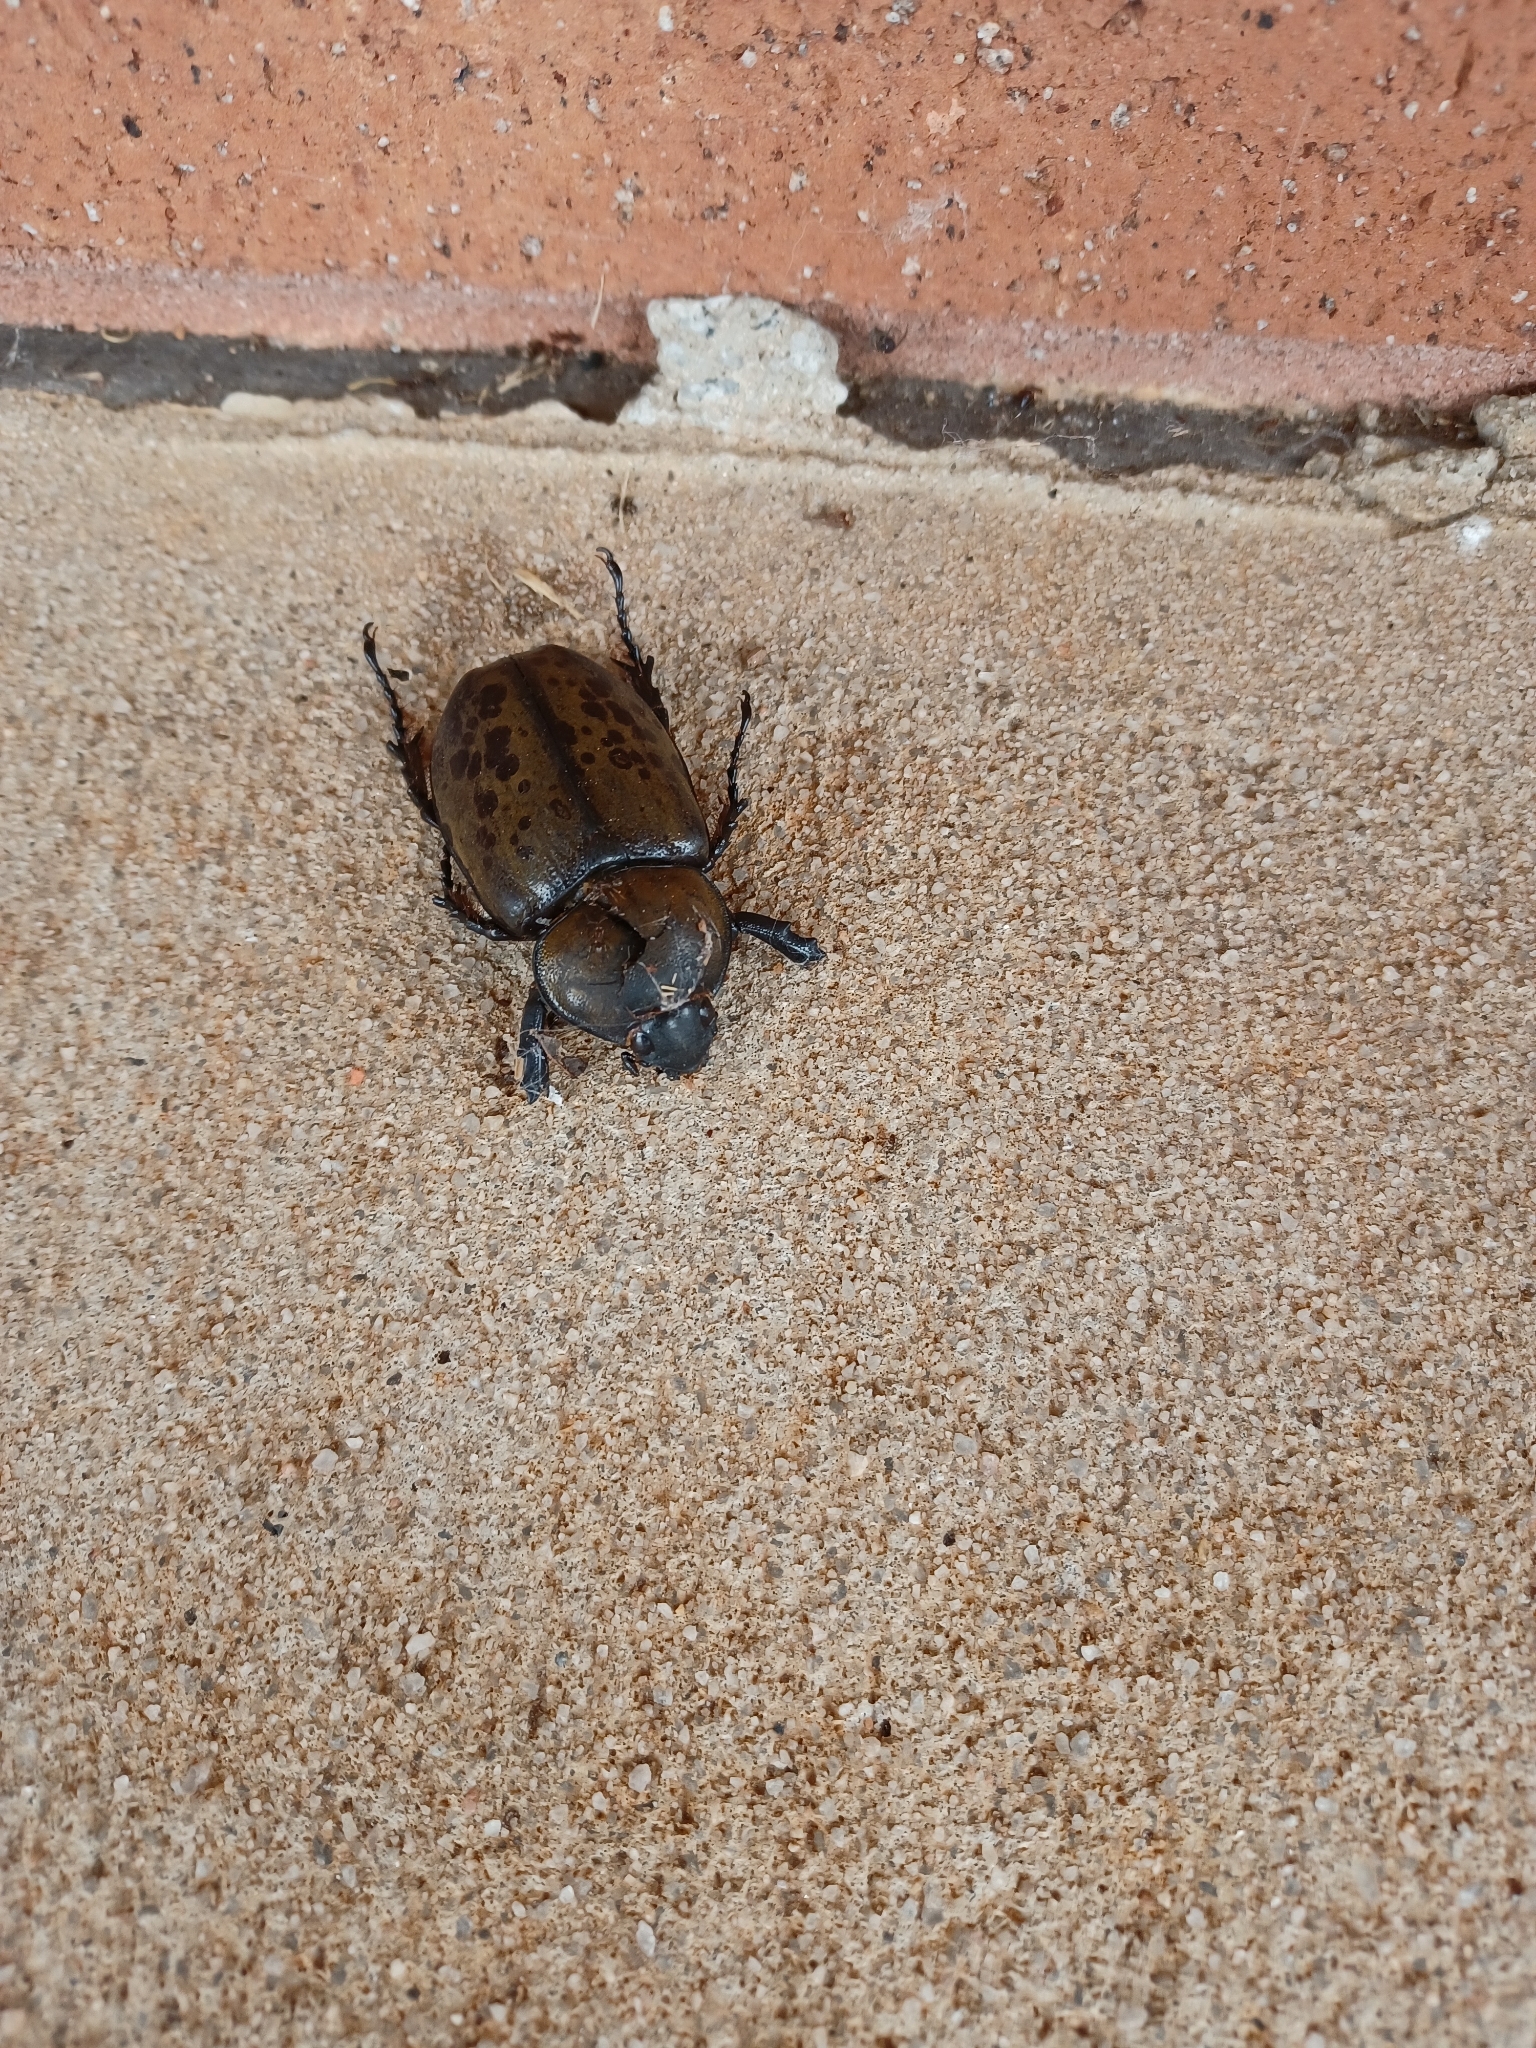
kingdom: Animalia
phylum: Arthropoda
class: Insecta
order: Coleoptera
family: Scarabaeidae
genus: Dynastes
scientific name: Dynastes tityus
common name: Eastern hercules beetle
